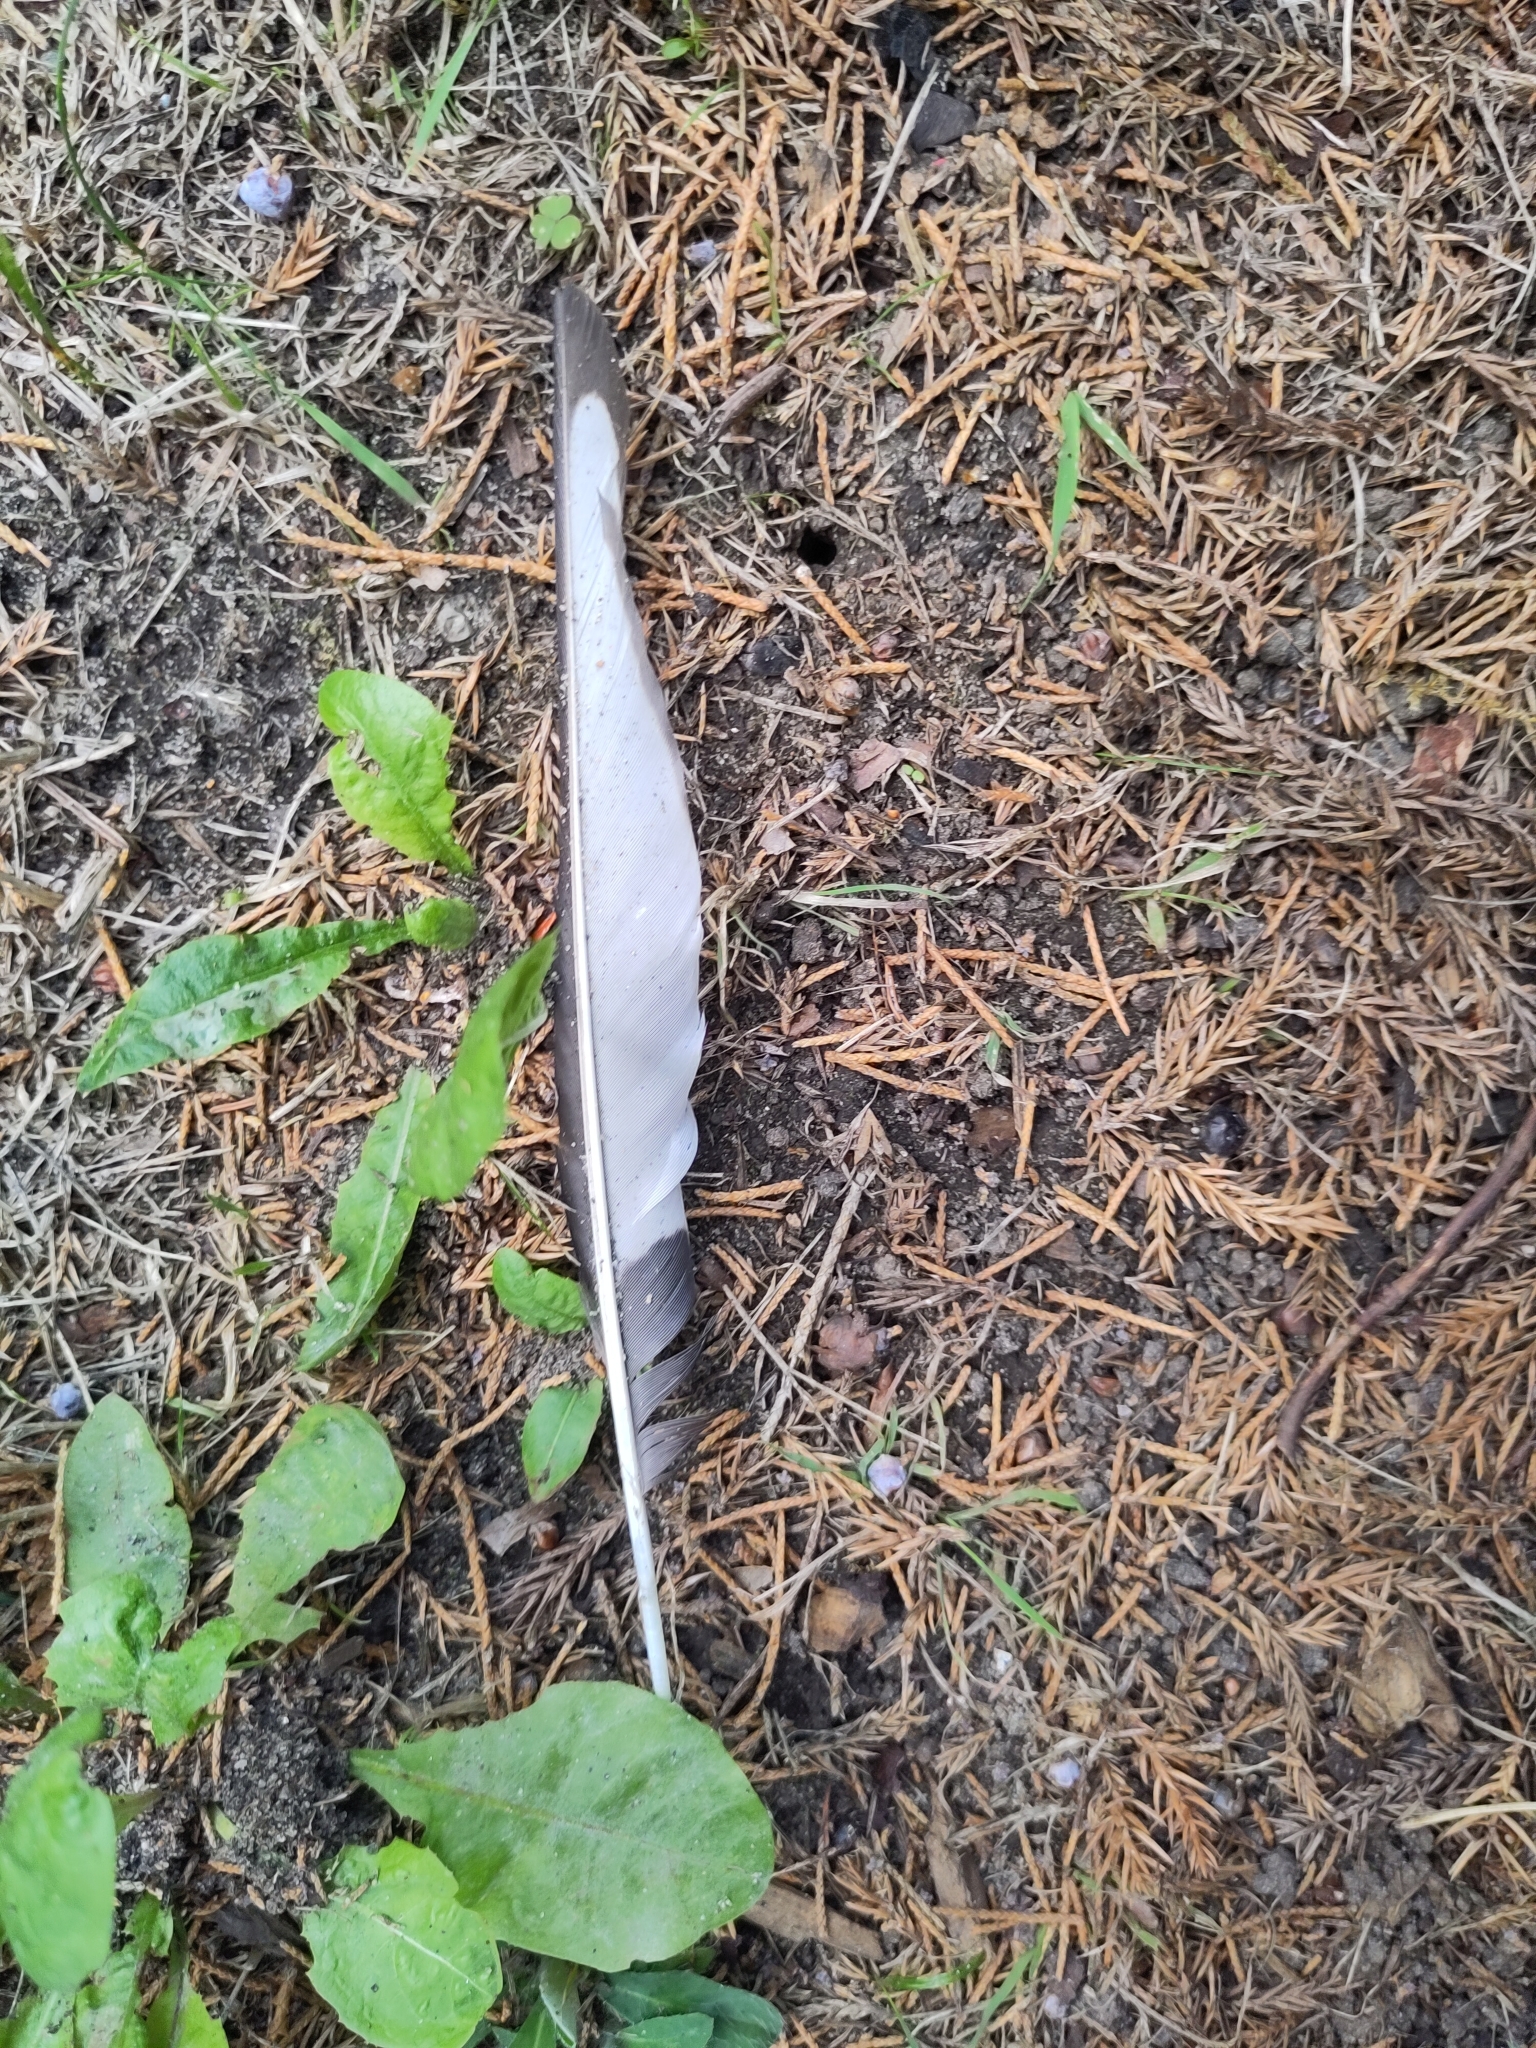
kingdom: Animalia
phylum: Chordata
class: Aves
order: Passeriformes
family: Corvidae
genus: Pica
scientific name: Pica pica
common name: Eurasian magpie
